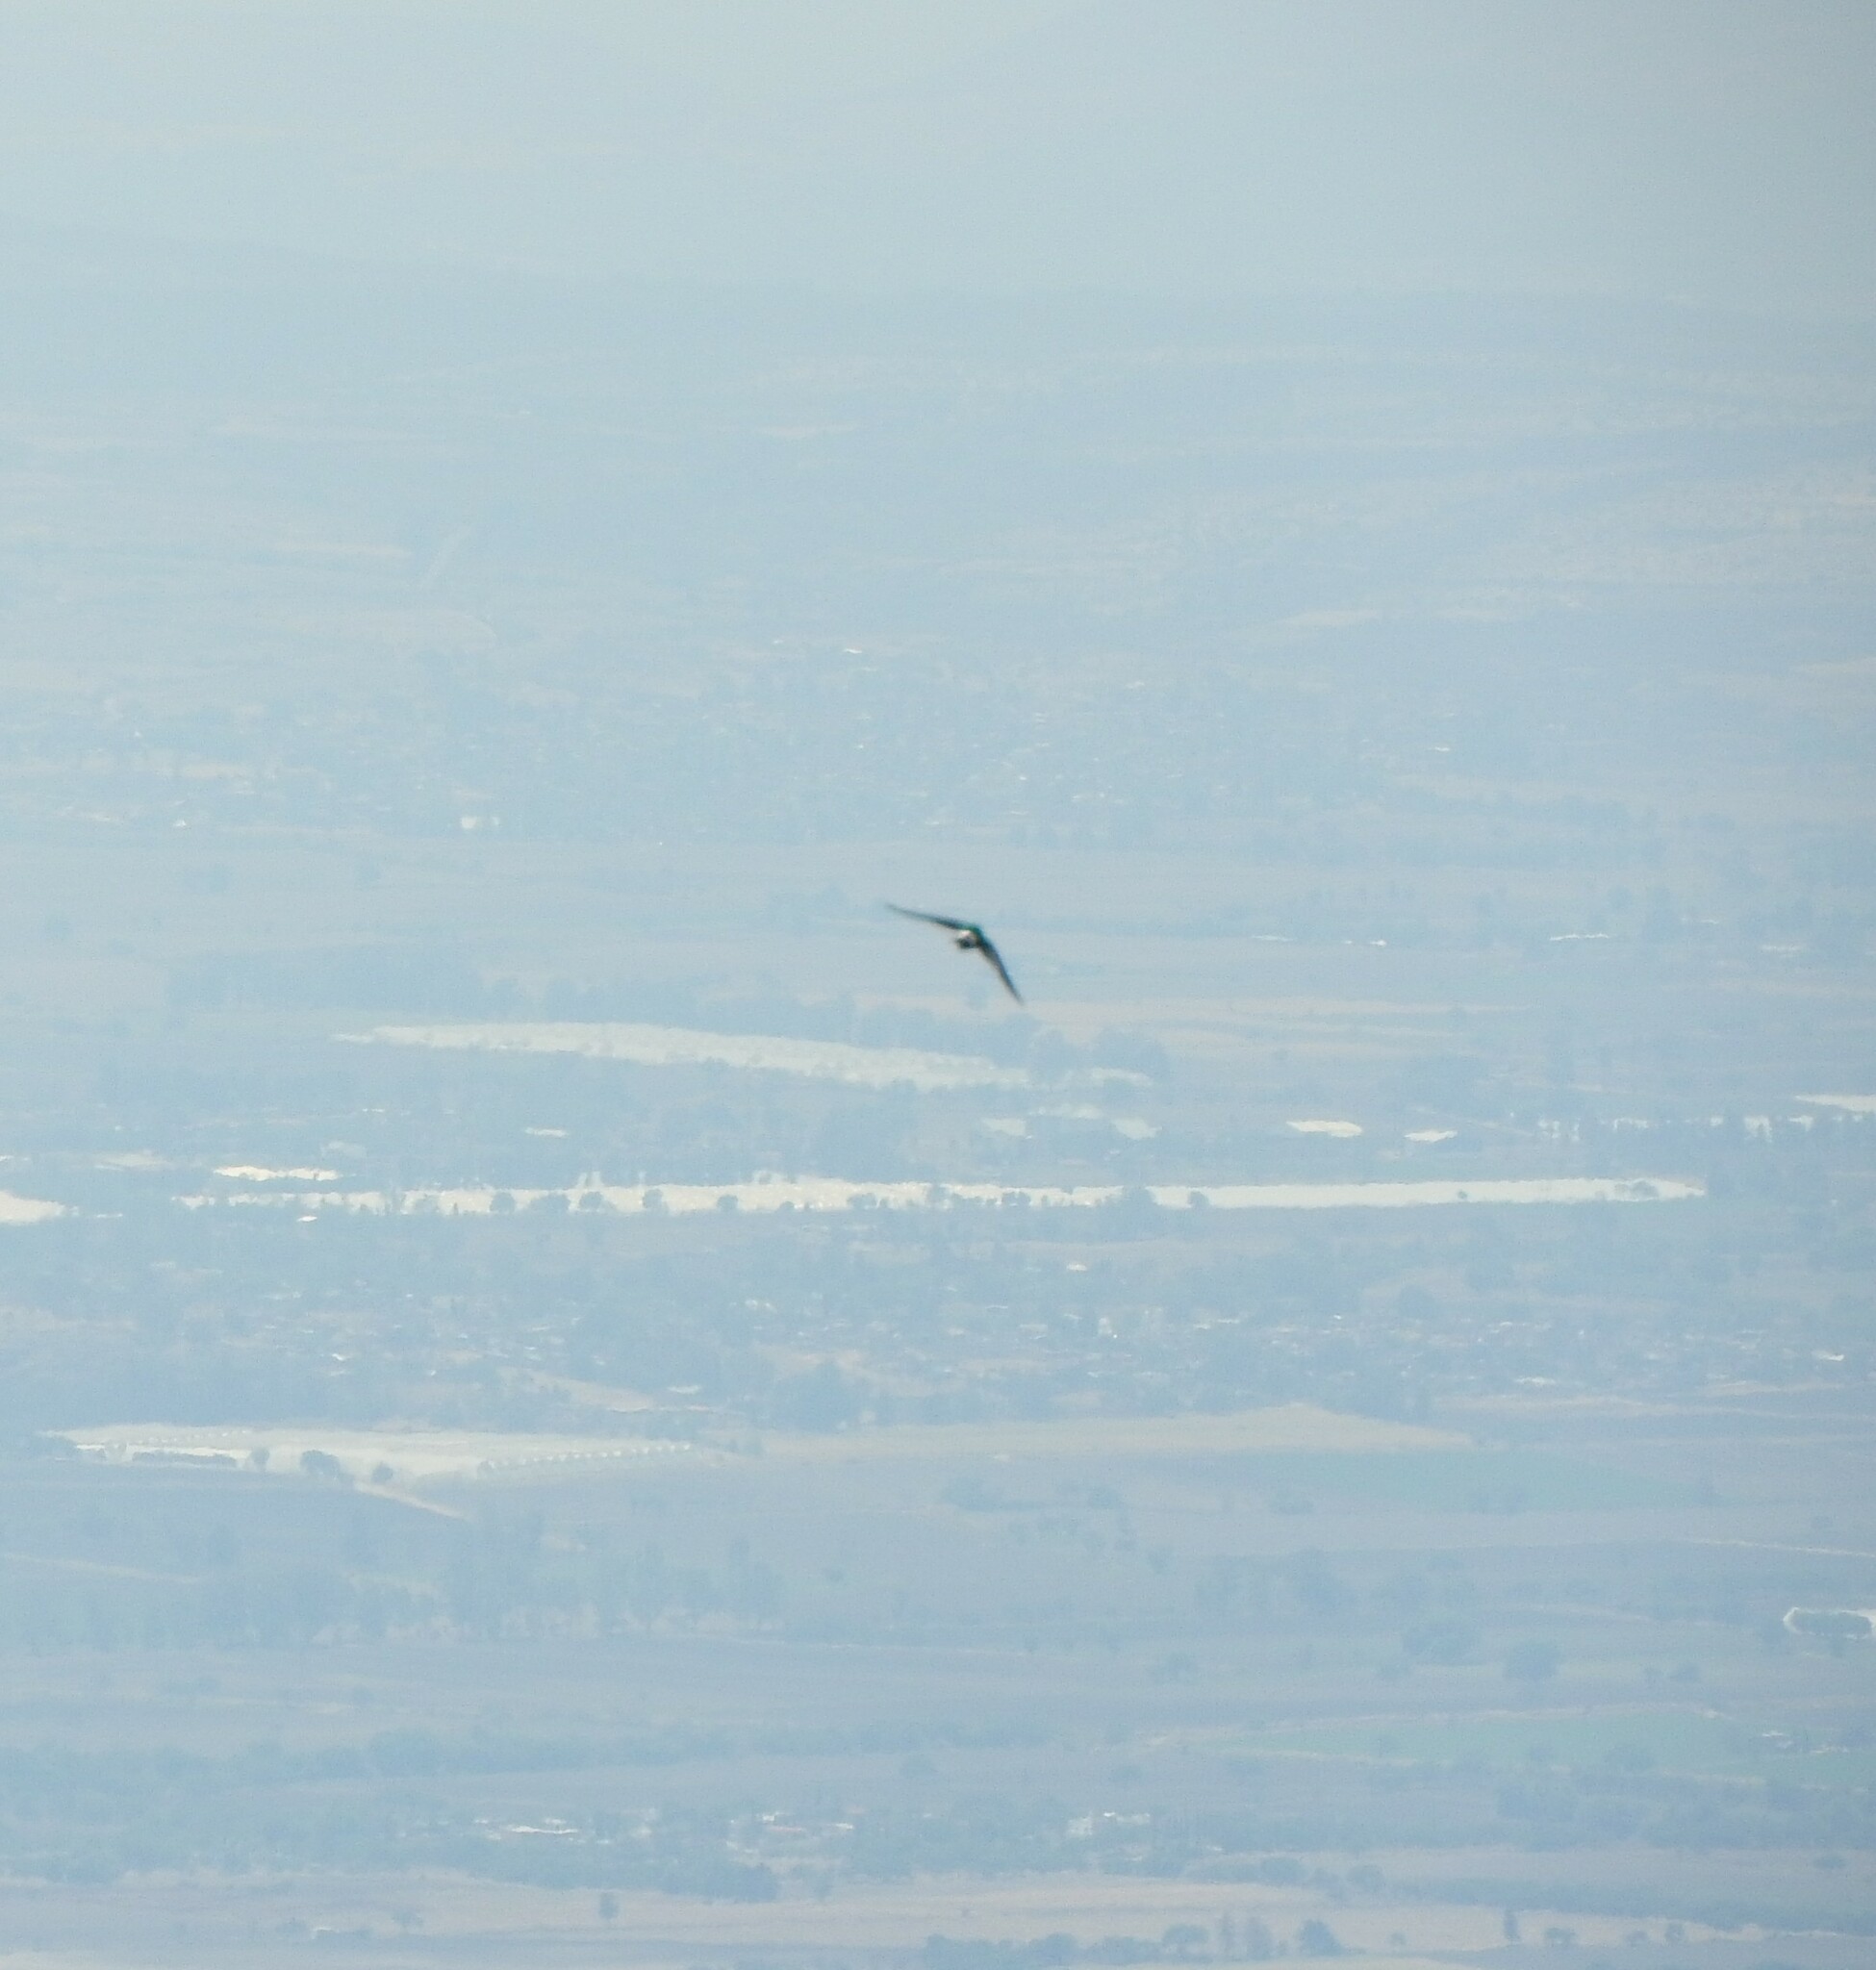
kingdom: Animalia
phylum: Chordata
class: Aves
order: Apodiformes
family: Apodidae
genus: Aeronautes
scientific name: Aeronautes saxatalis
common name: White-throated swift
